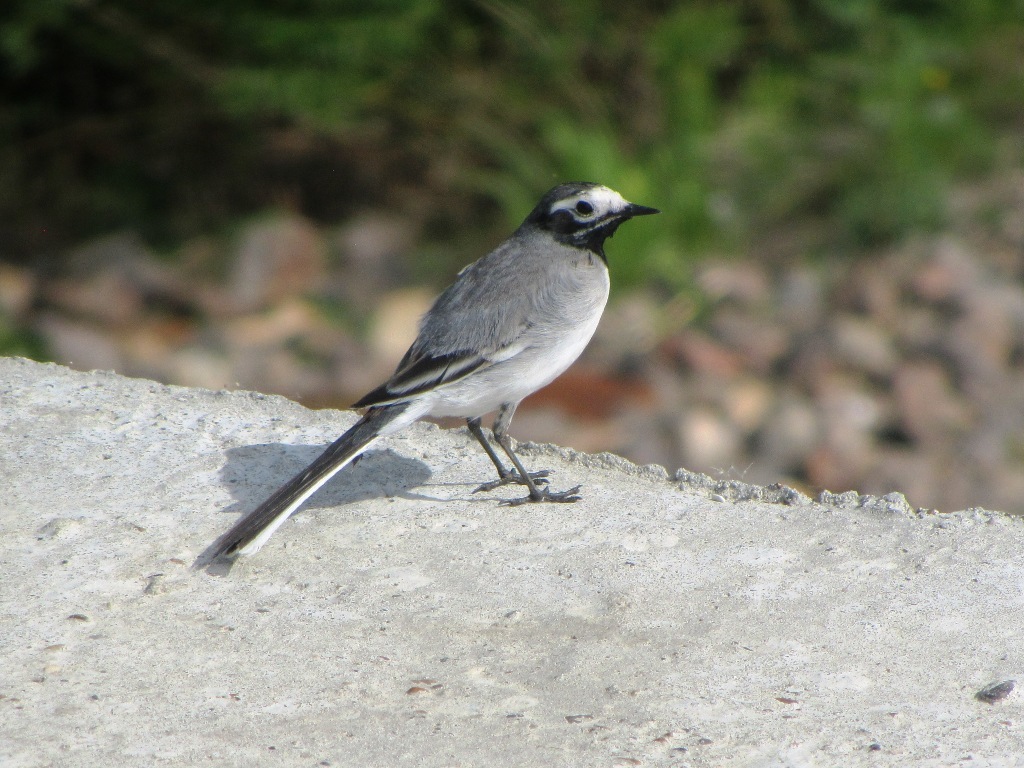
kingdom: Animalia
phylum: Chordata
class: Aves
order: Passeriformes
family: Motacillidae
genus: Motacilla
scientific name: Motacilla alba
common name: White wagtail
